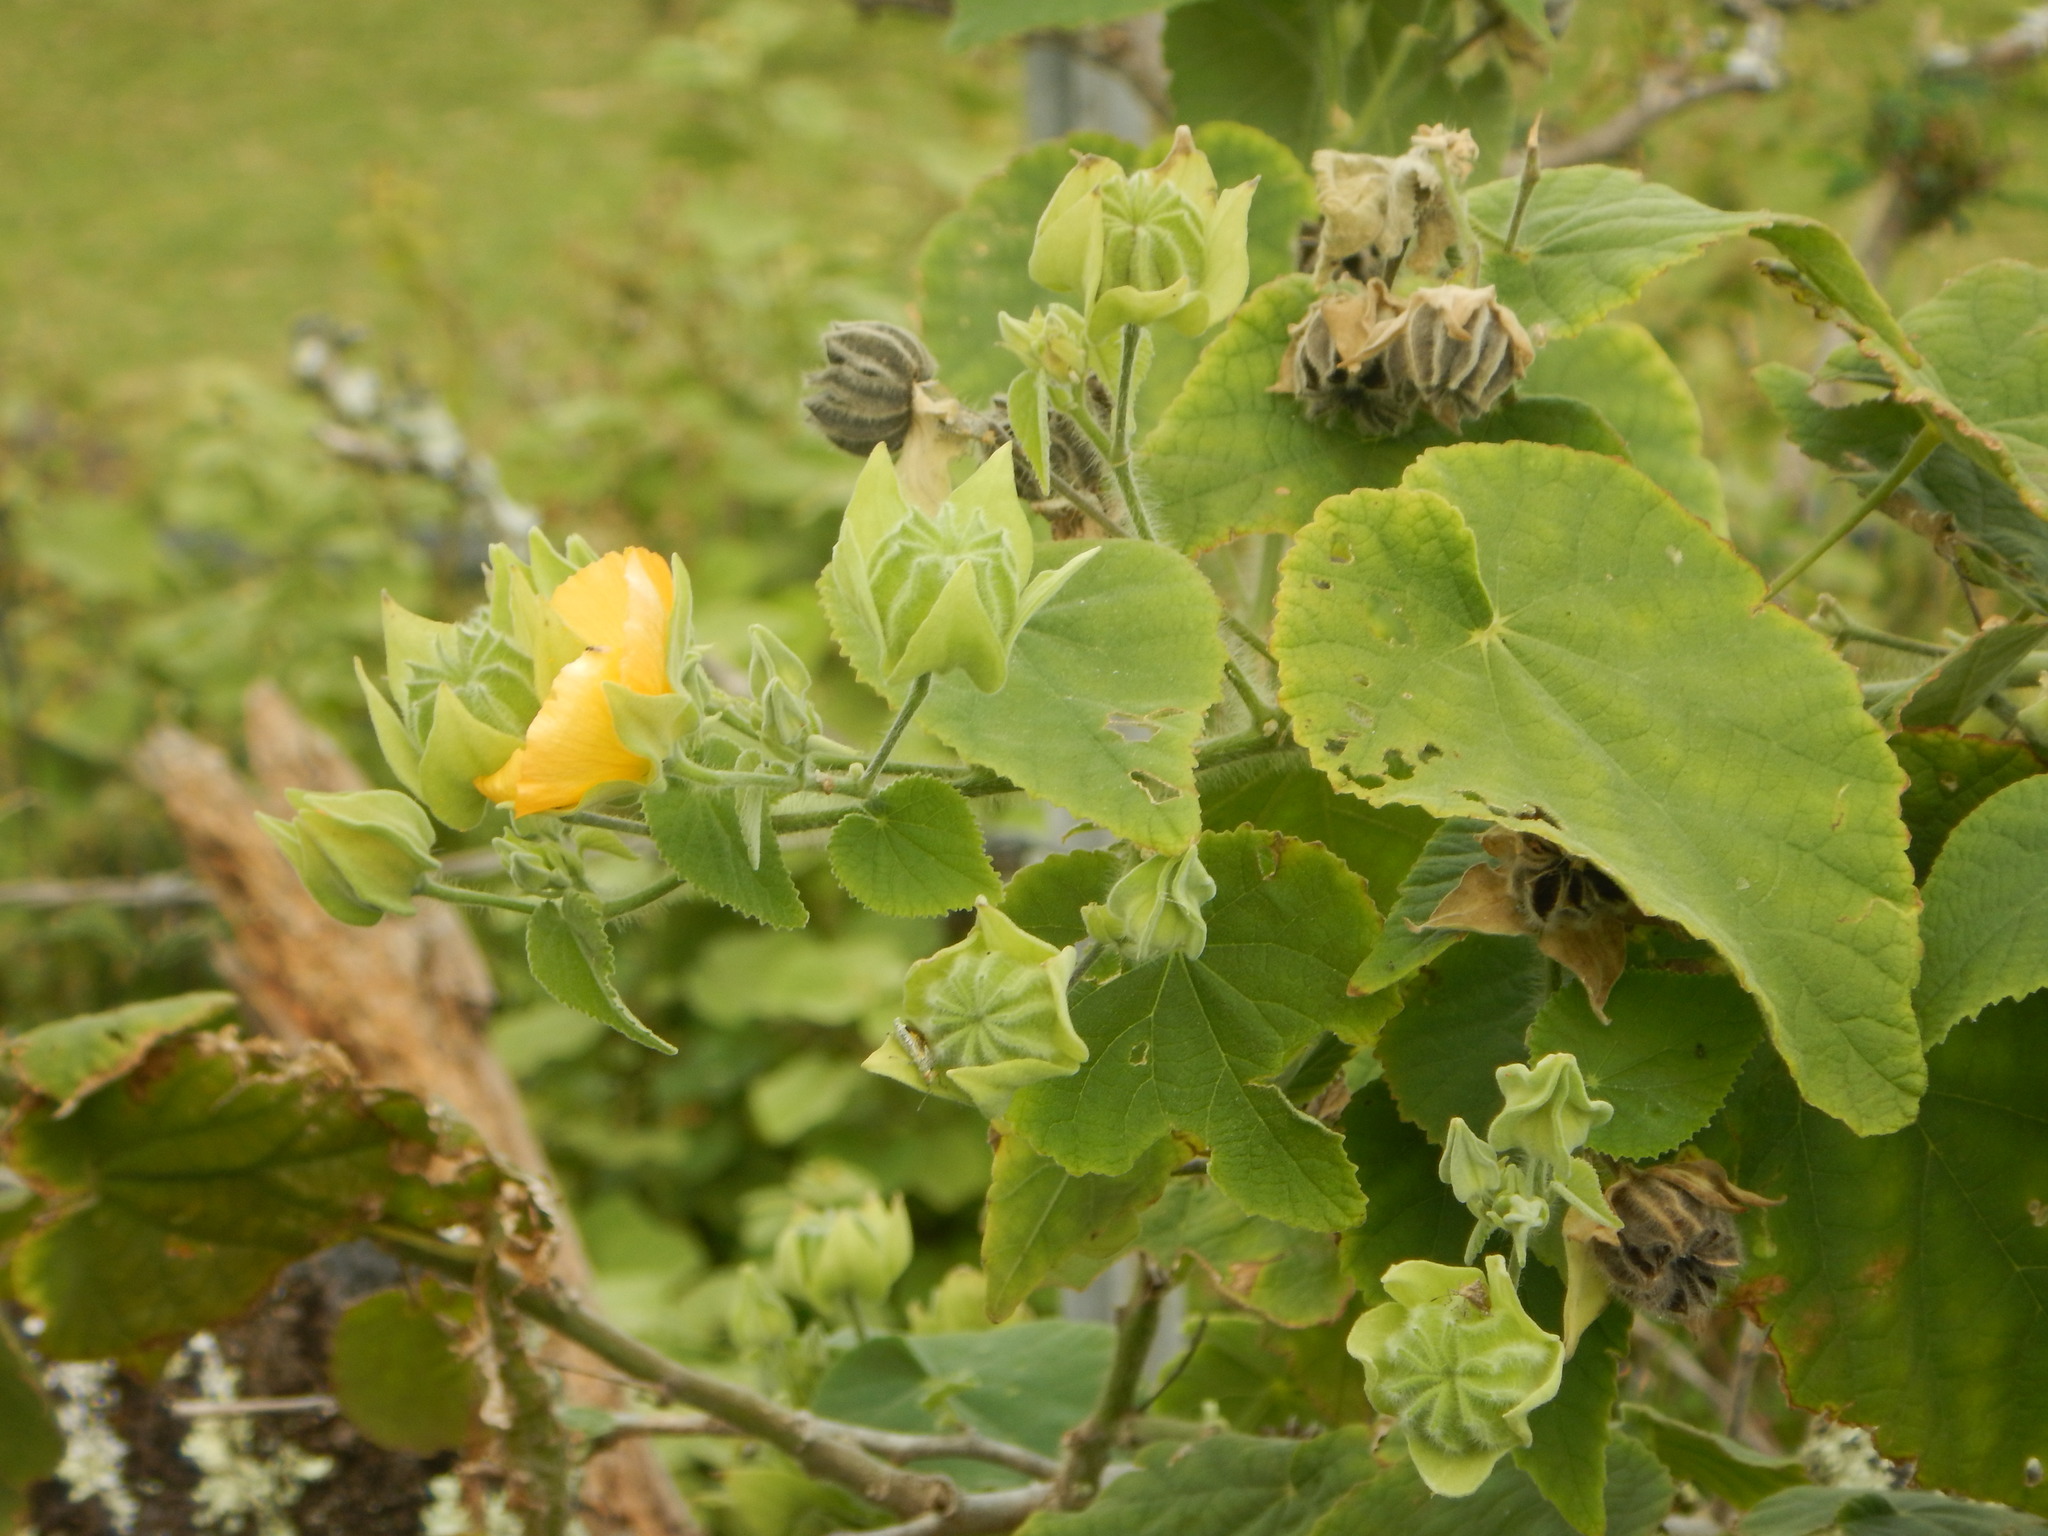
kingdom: Plantae
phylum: Tracheophyta
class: Magnoliopsida
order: Malvales
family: Malvaceae
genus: Abutilon
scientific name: Abutilon grandifolium
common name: Hairy abutilon
